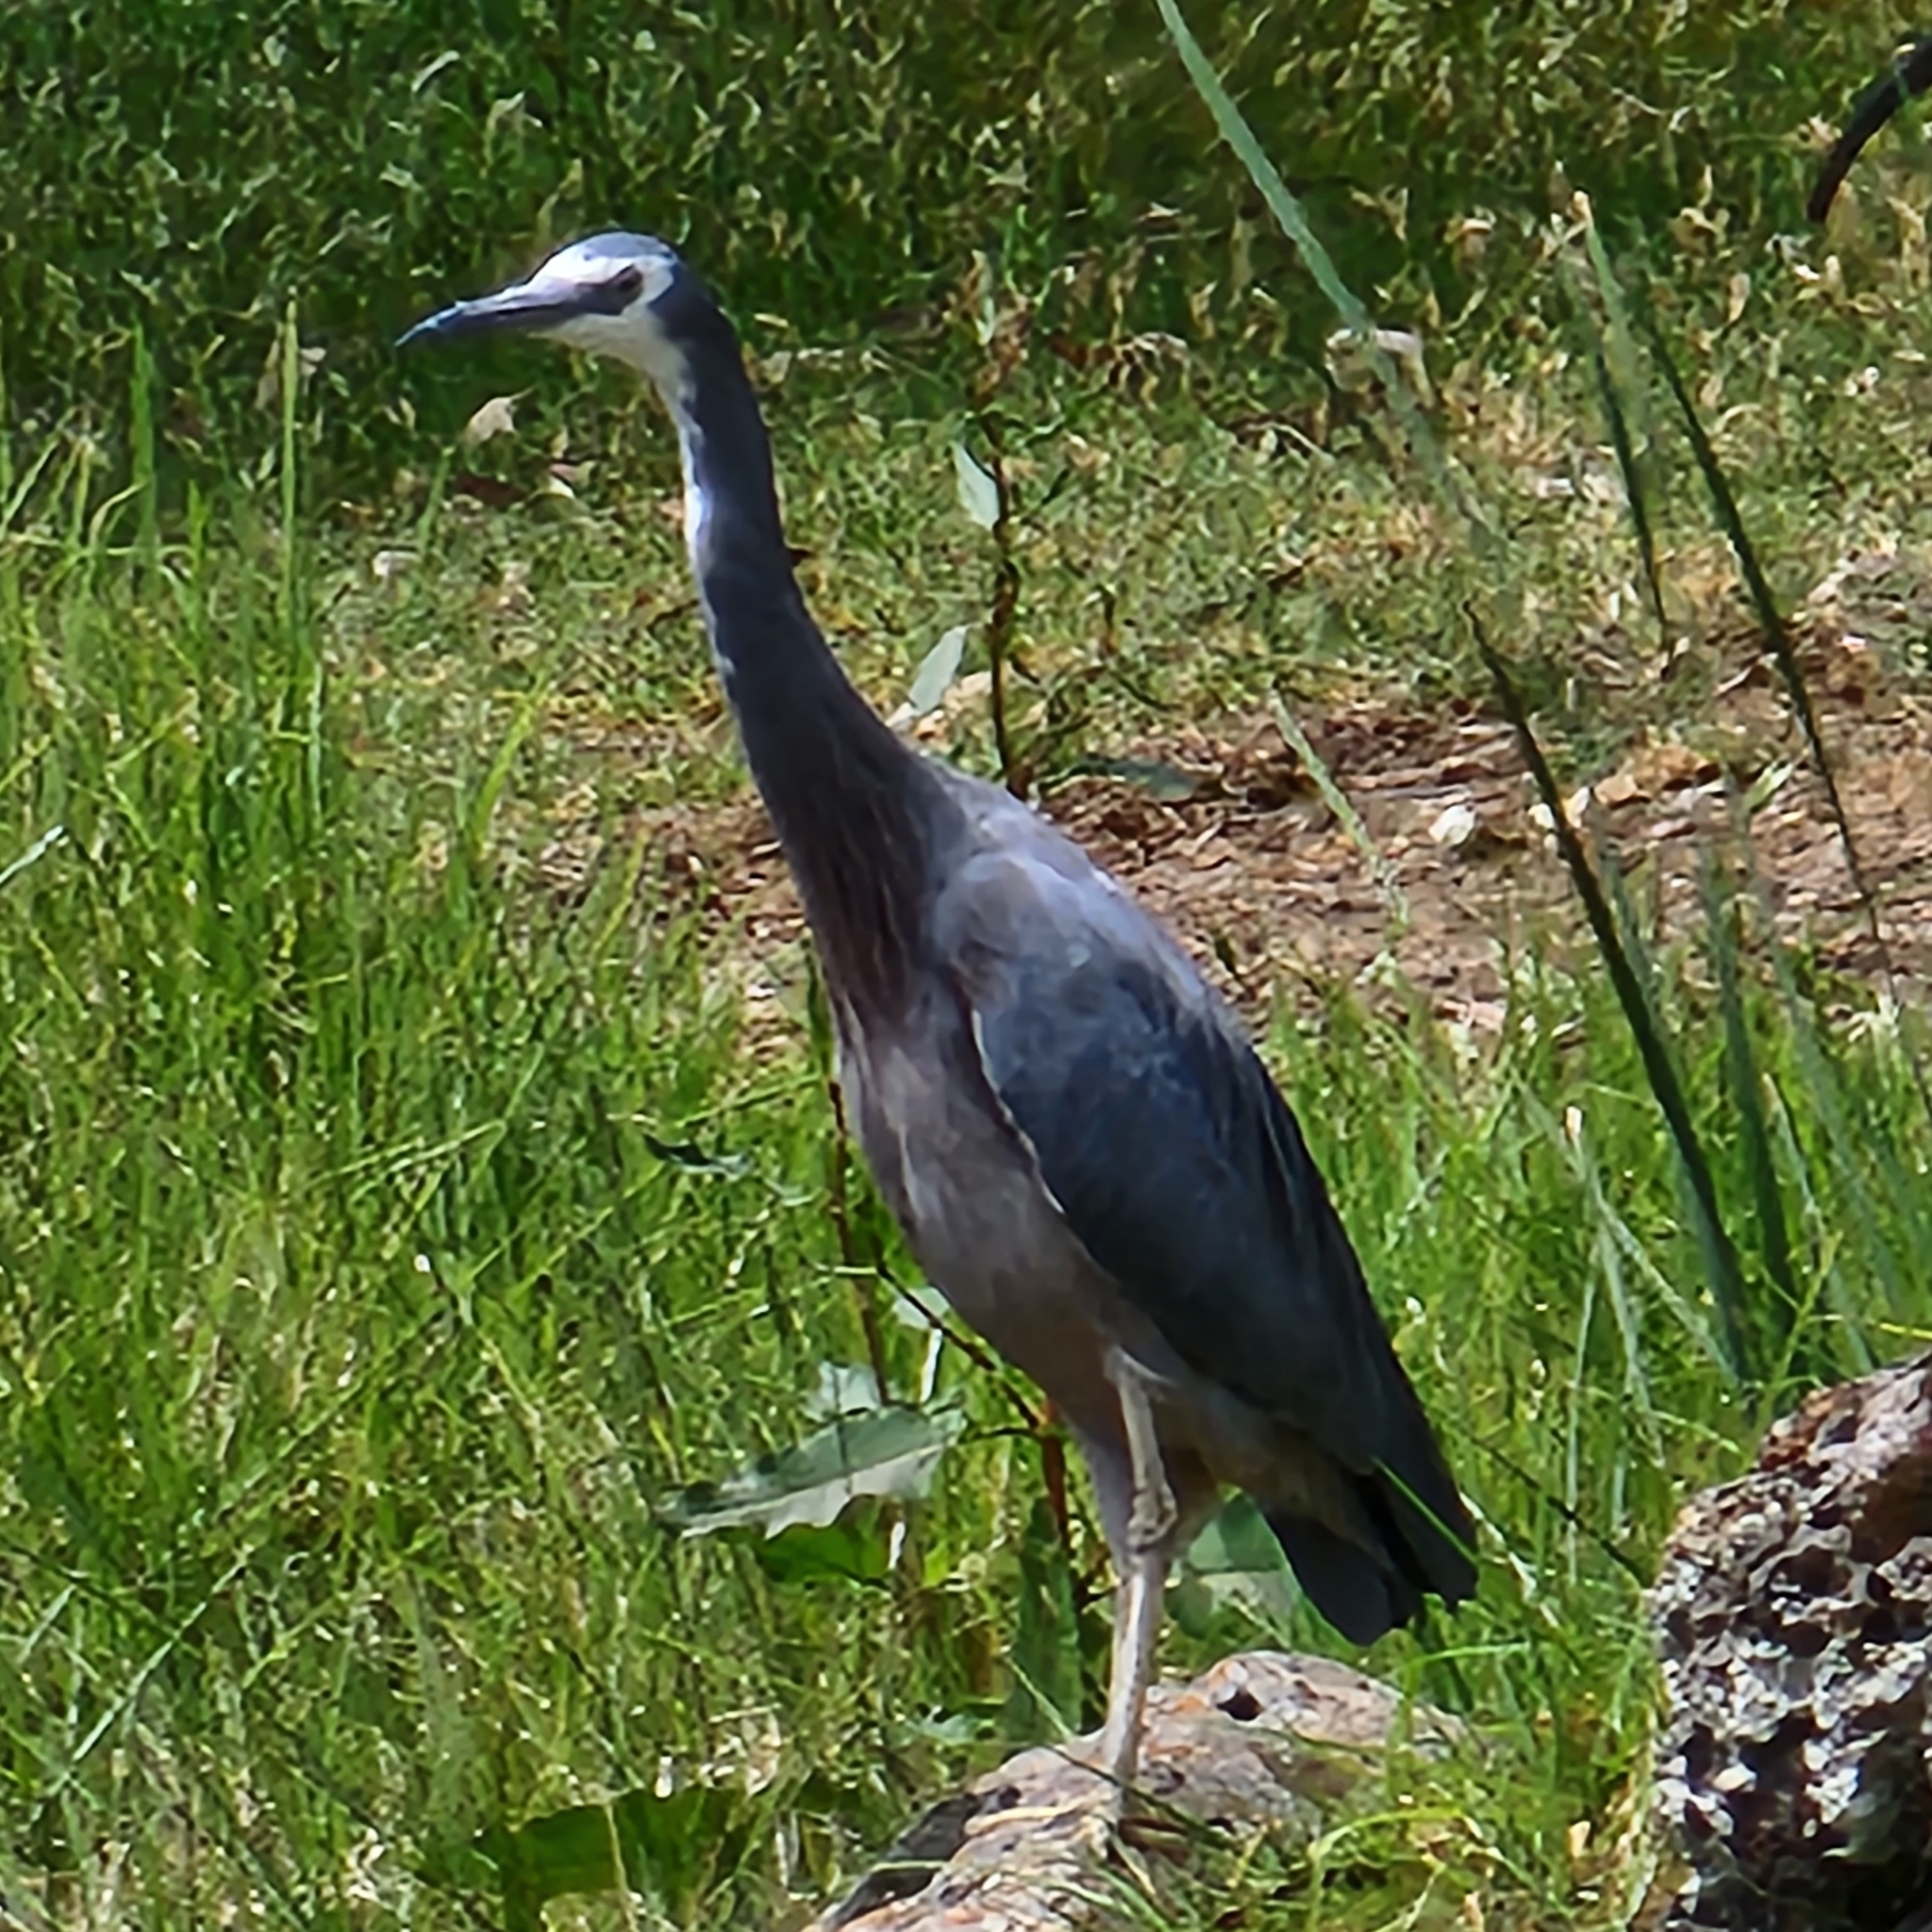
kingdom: Animalia
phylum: Chordata
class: Aves
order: Pelecaniformes
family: Ardeidae
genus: Egretta
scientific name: Egretta novaehollandiae
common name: White-faced heron
